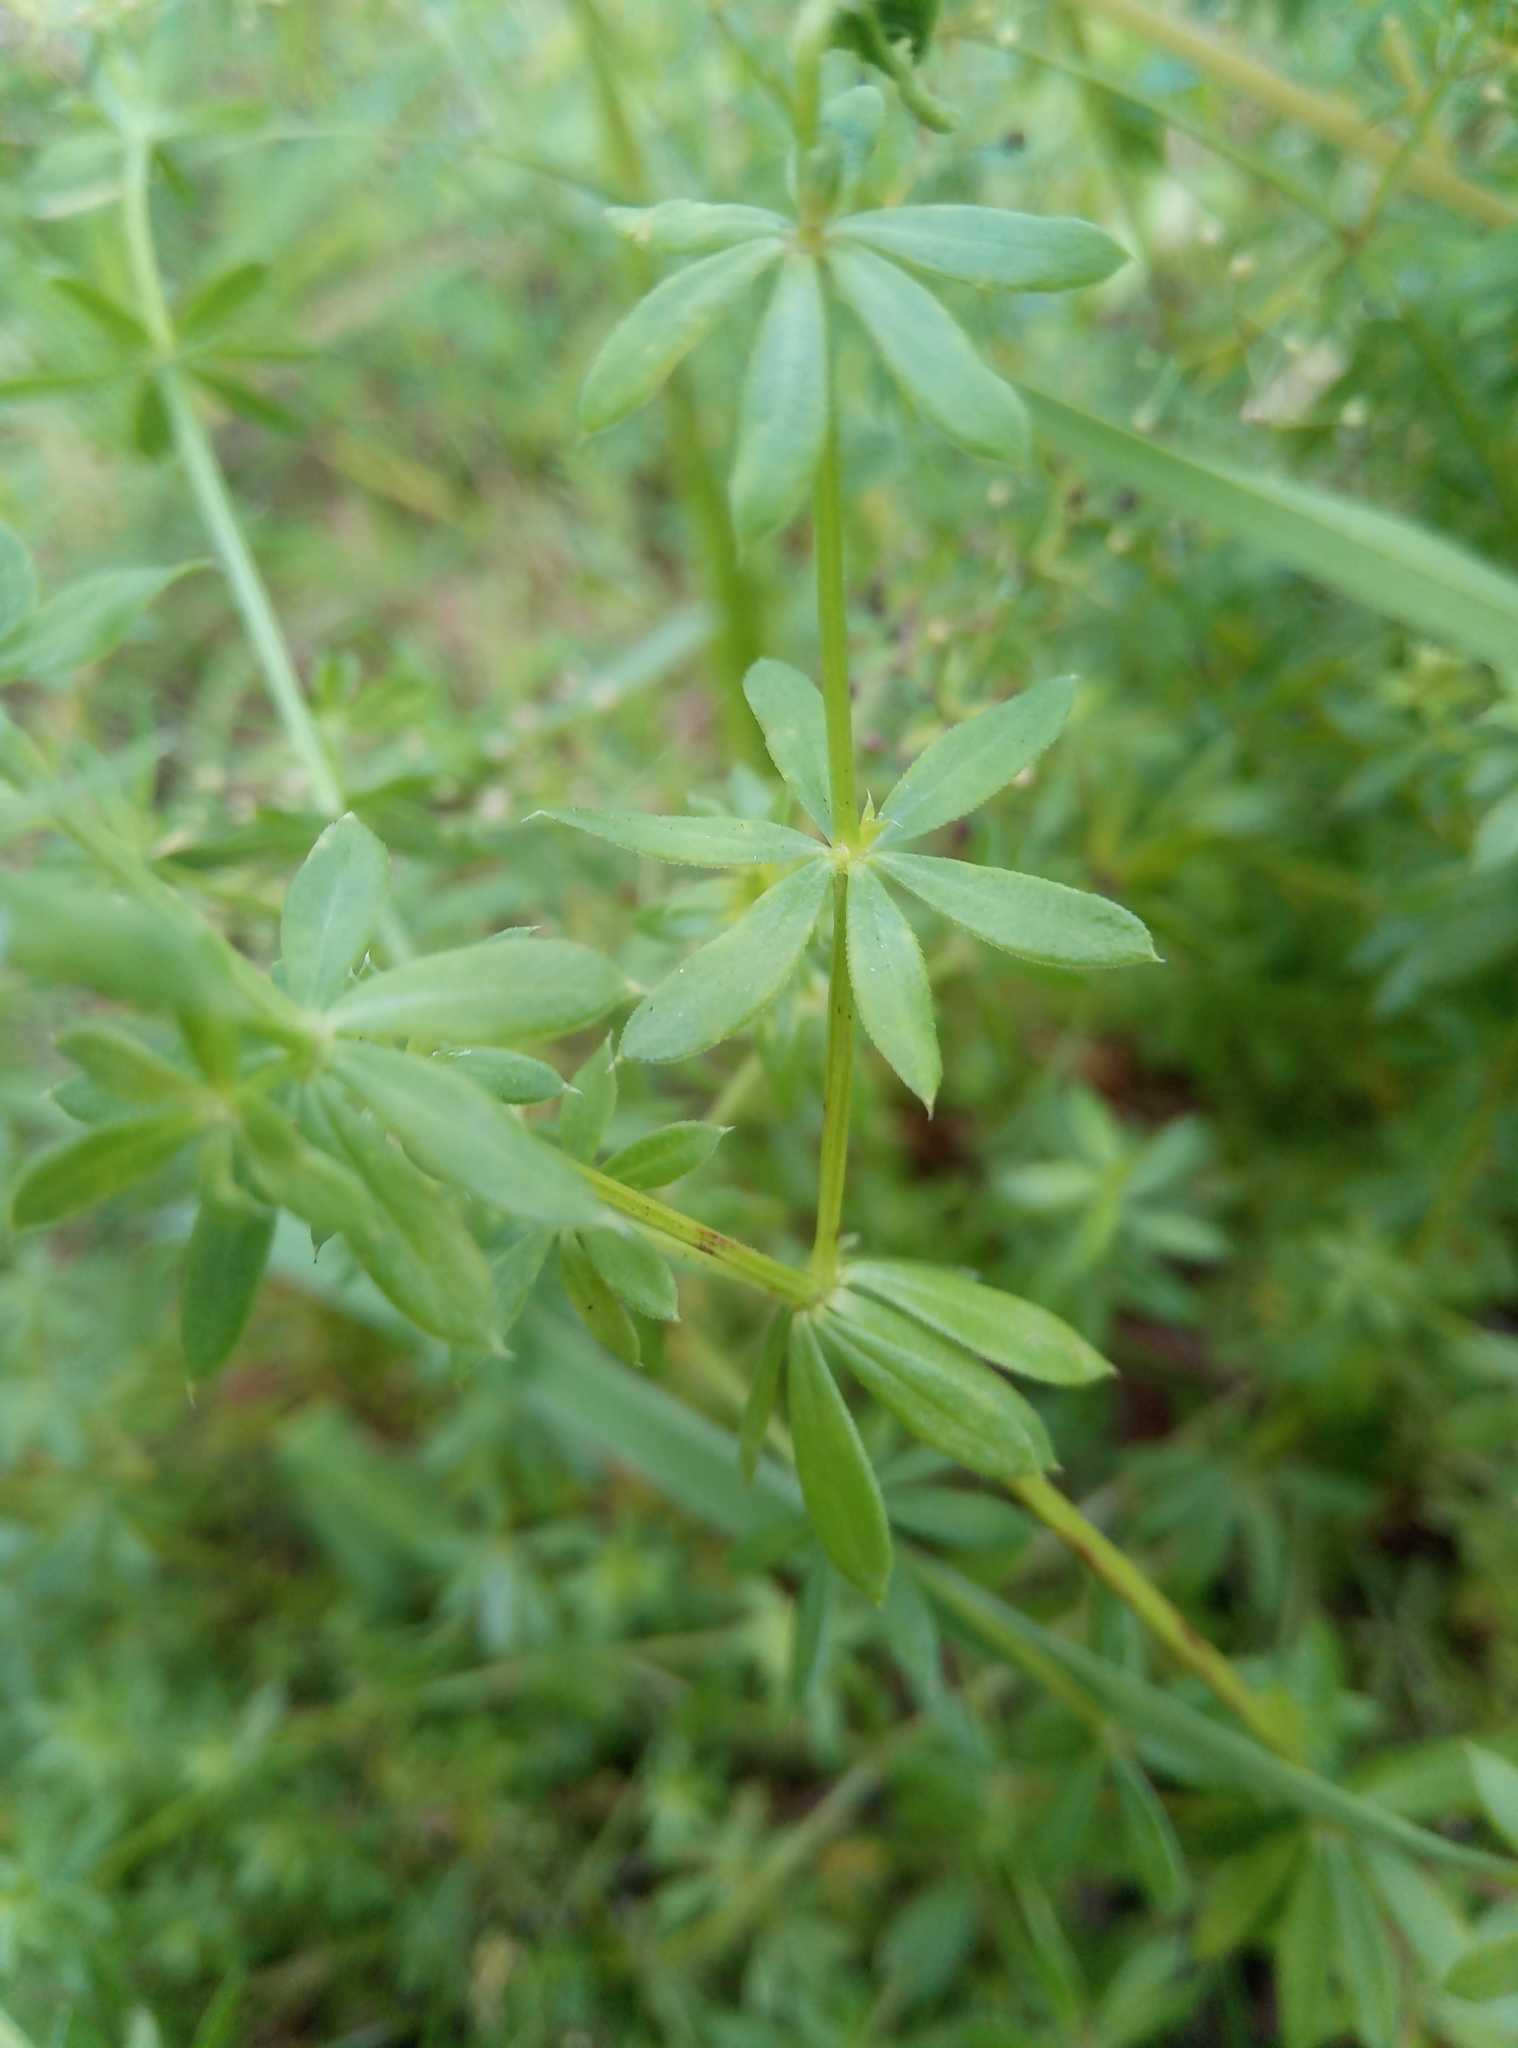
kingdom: Plantae
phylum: Tracheophyta
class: Magnoliopsida
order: Gentianales
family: Rubiaceae
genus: Galium
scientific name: Galium mollugo
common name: Hedge bedstraw
